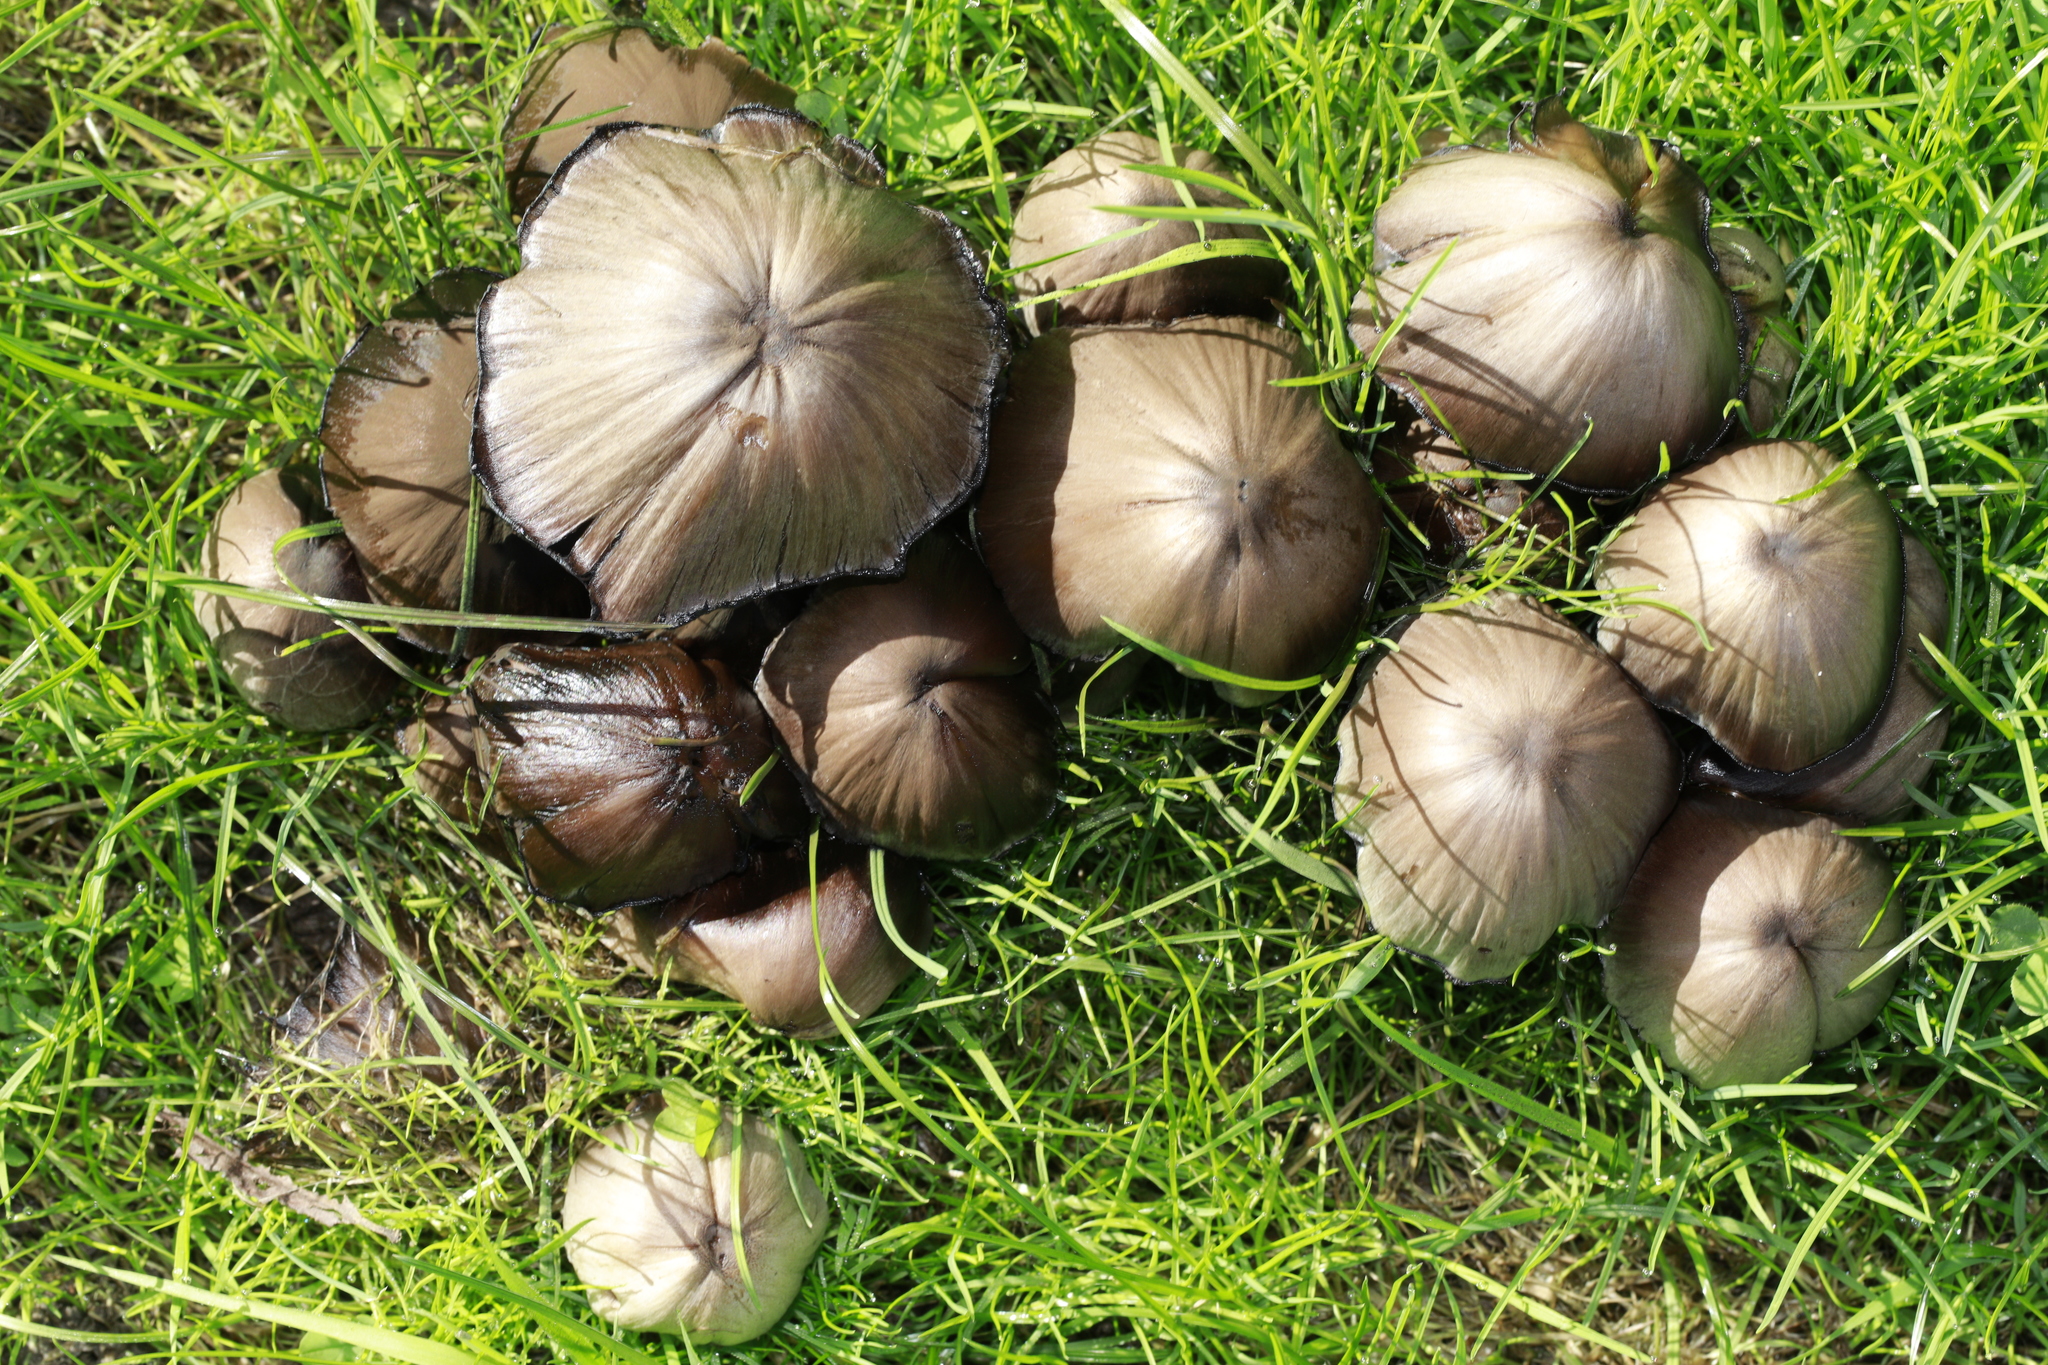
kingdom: Fungi
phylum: Basidiomycota
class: Agaricomycetes
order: Agaricales
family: Psathyrellaceae
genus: Coprinopsis
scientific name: Coprinopsis atramentaria
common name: Common ink-cap
